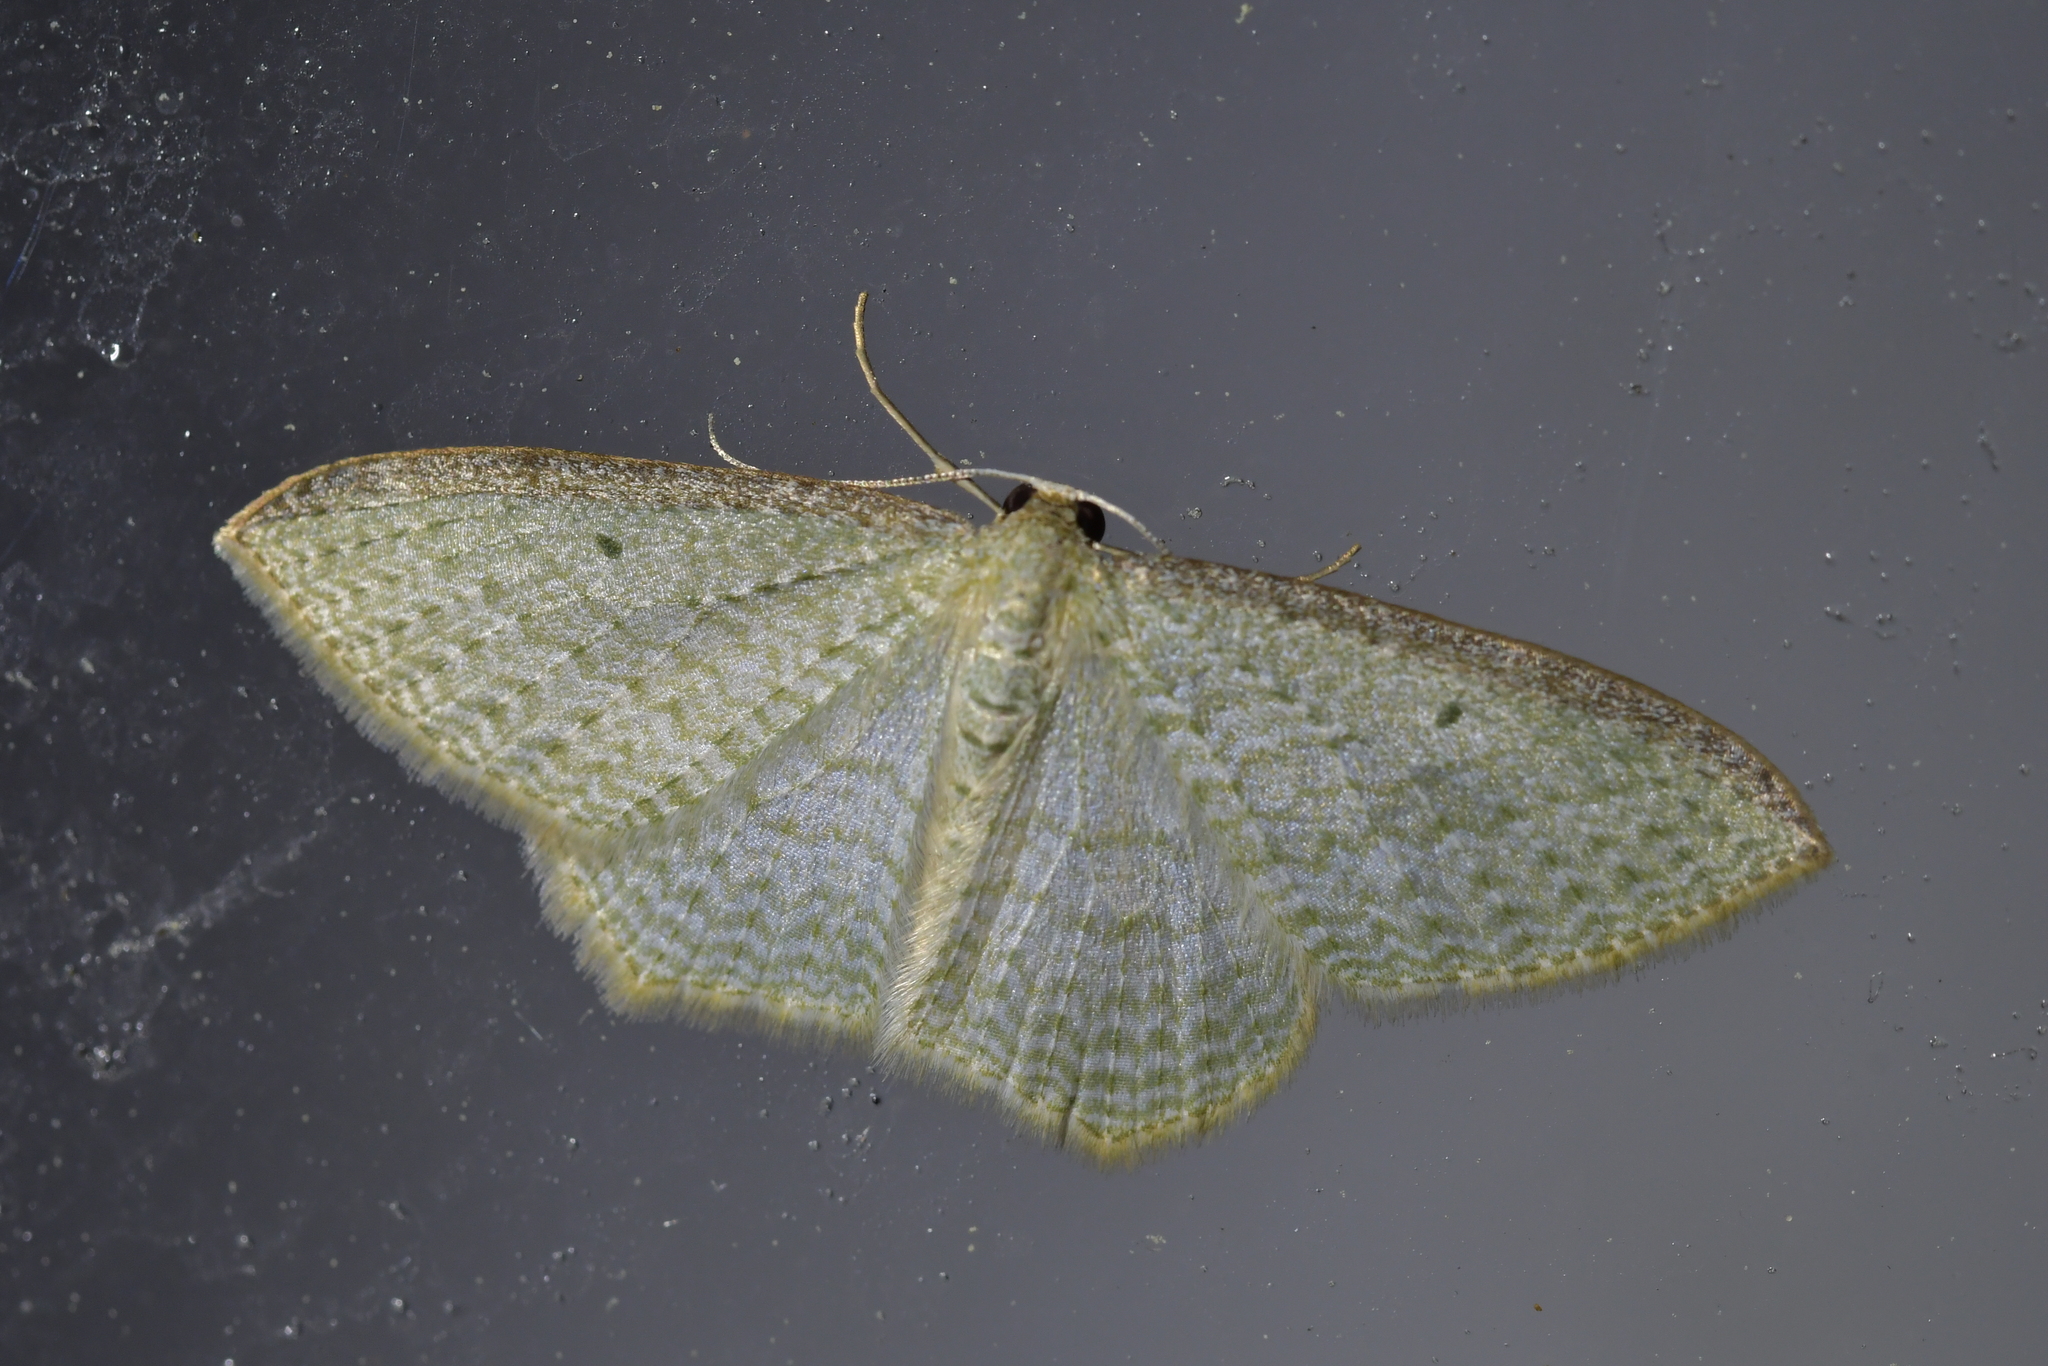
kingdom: Animalia
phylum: Arthropoda
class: Insecta
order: Lepidoptera
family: Geometridae
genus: Poecilasthena
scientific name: Poecilasthena pulchraria
